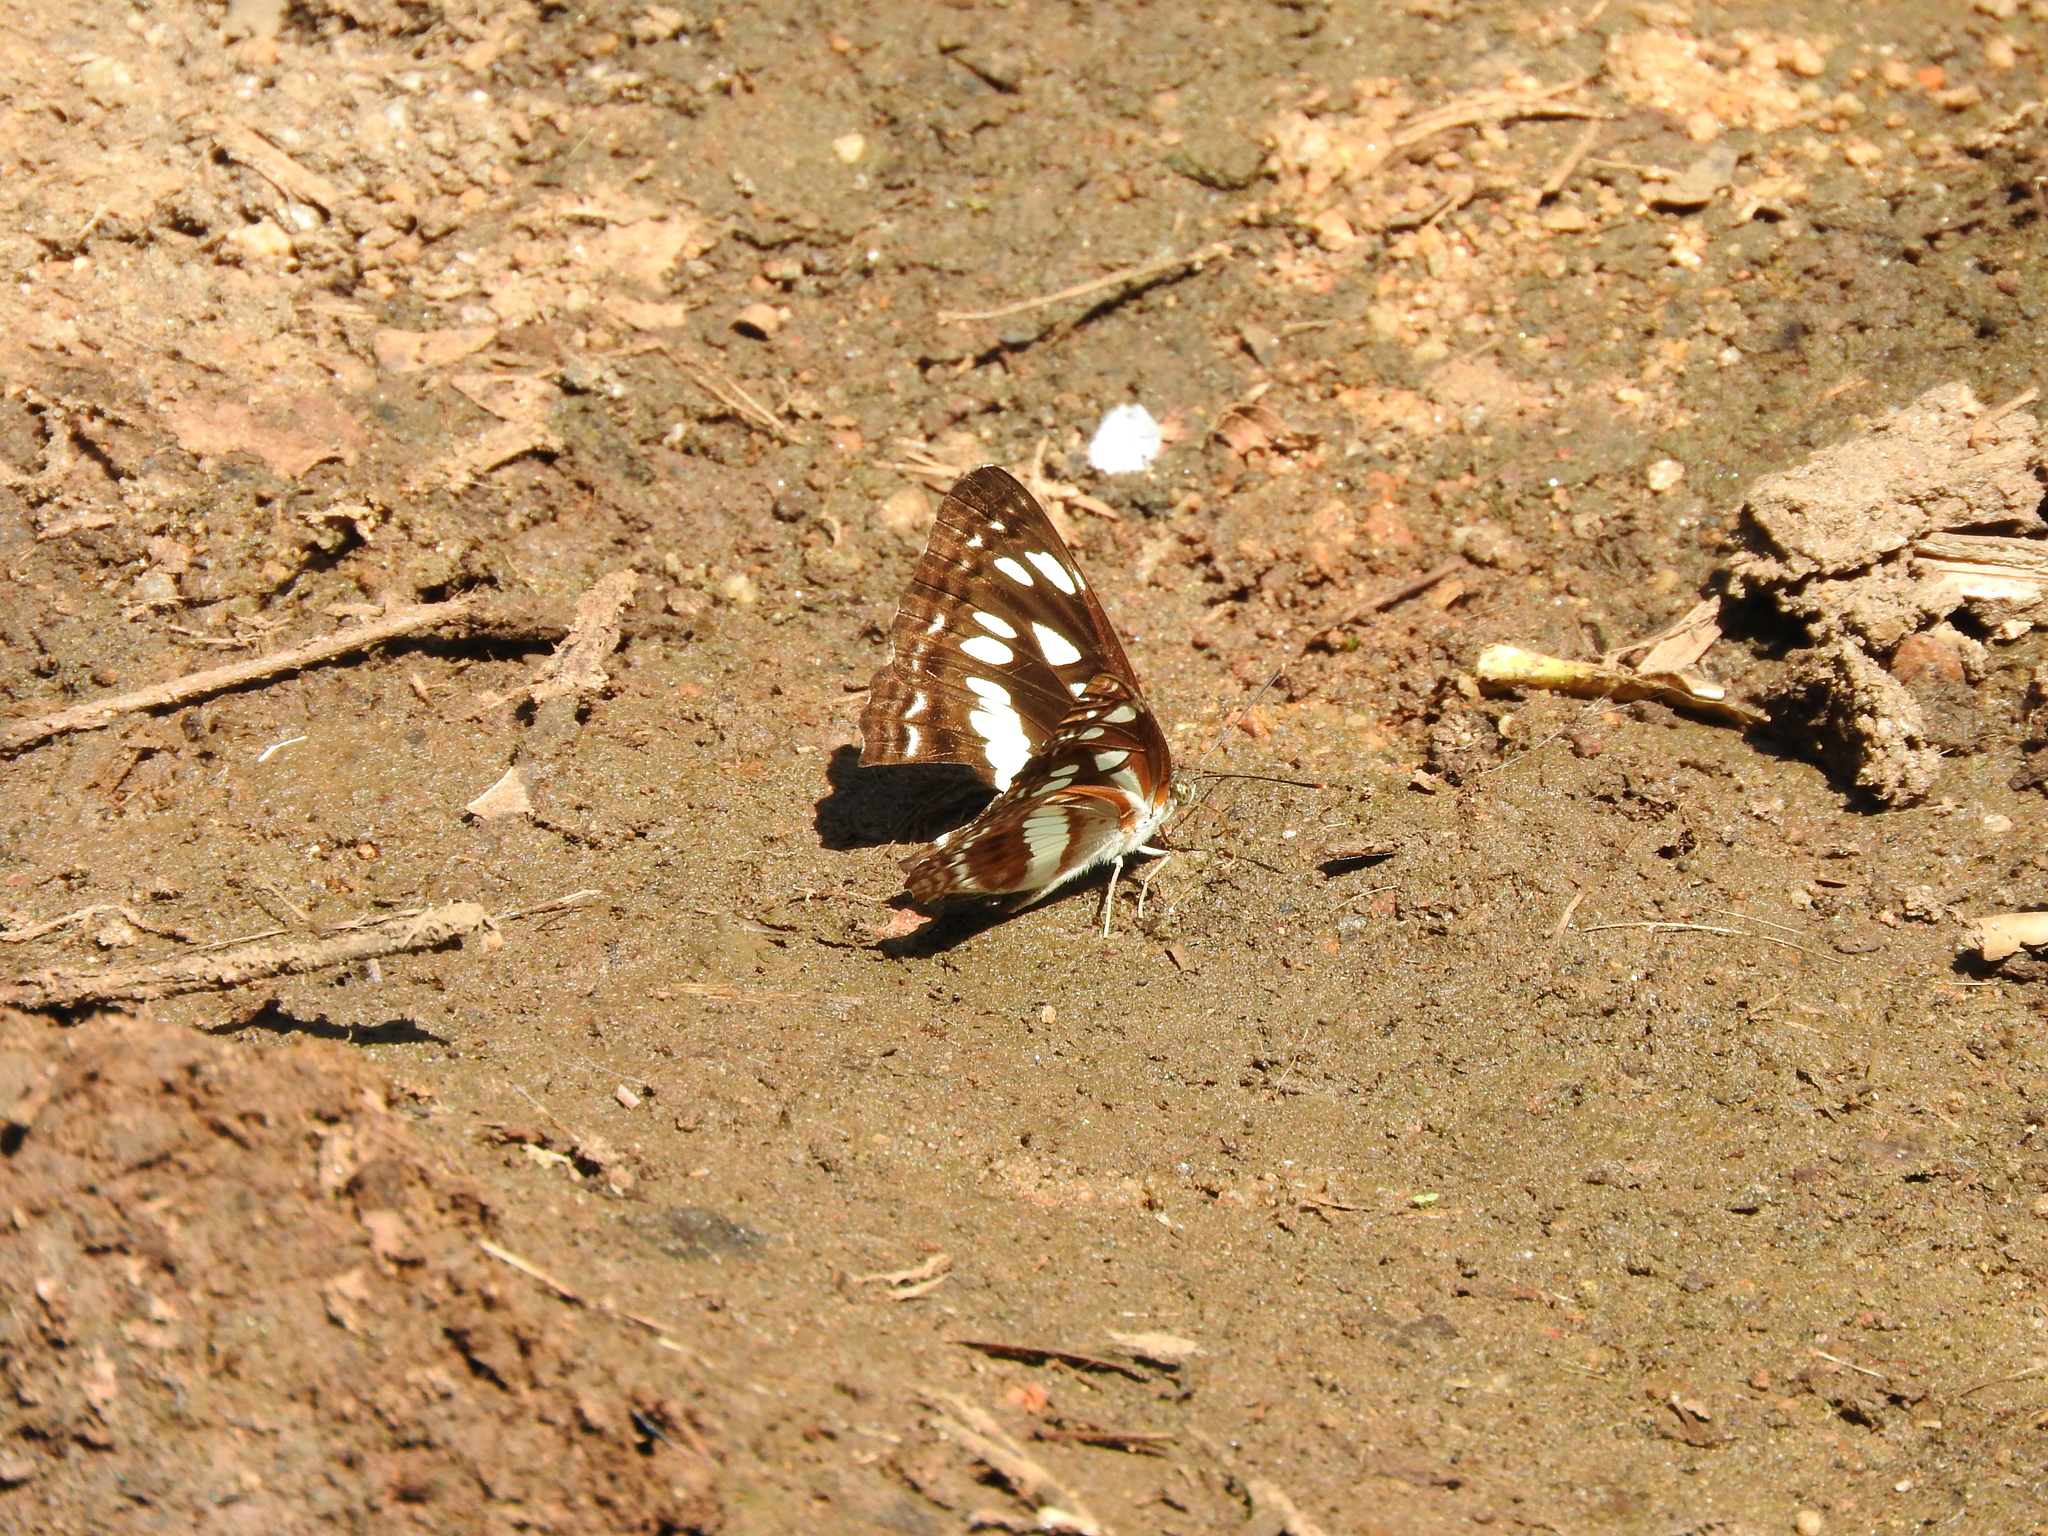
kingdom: Animalia
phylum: Arthropoda
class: Insecta
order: Lepidoptera
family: Nymphalidae
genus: Neptis
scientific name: Neptis jumbah
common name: Chestnut-streaked sailer
